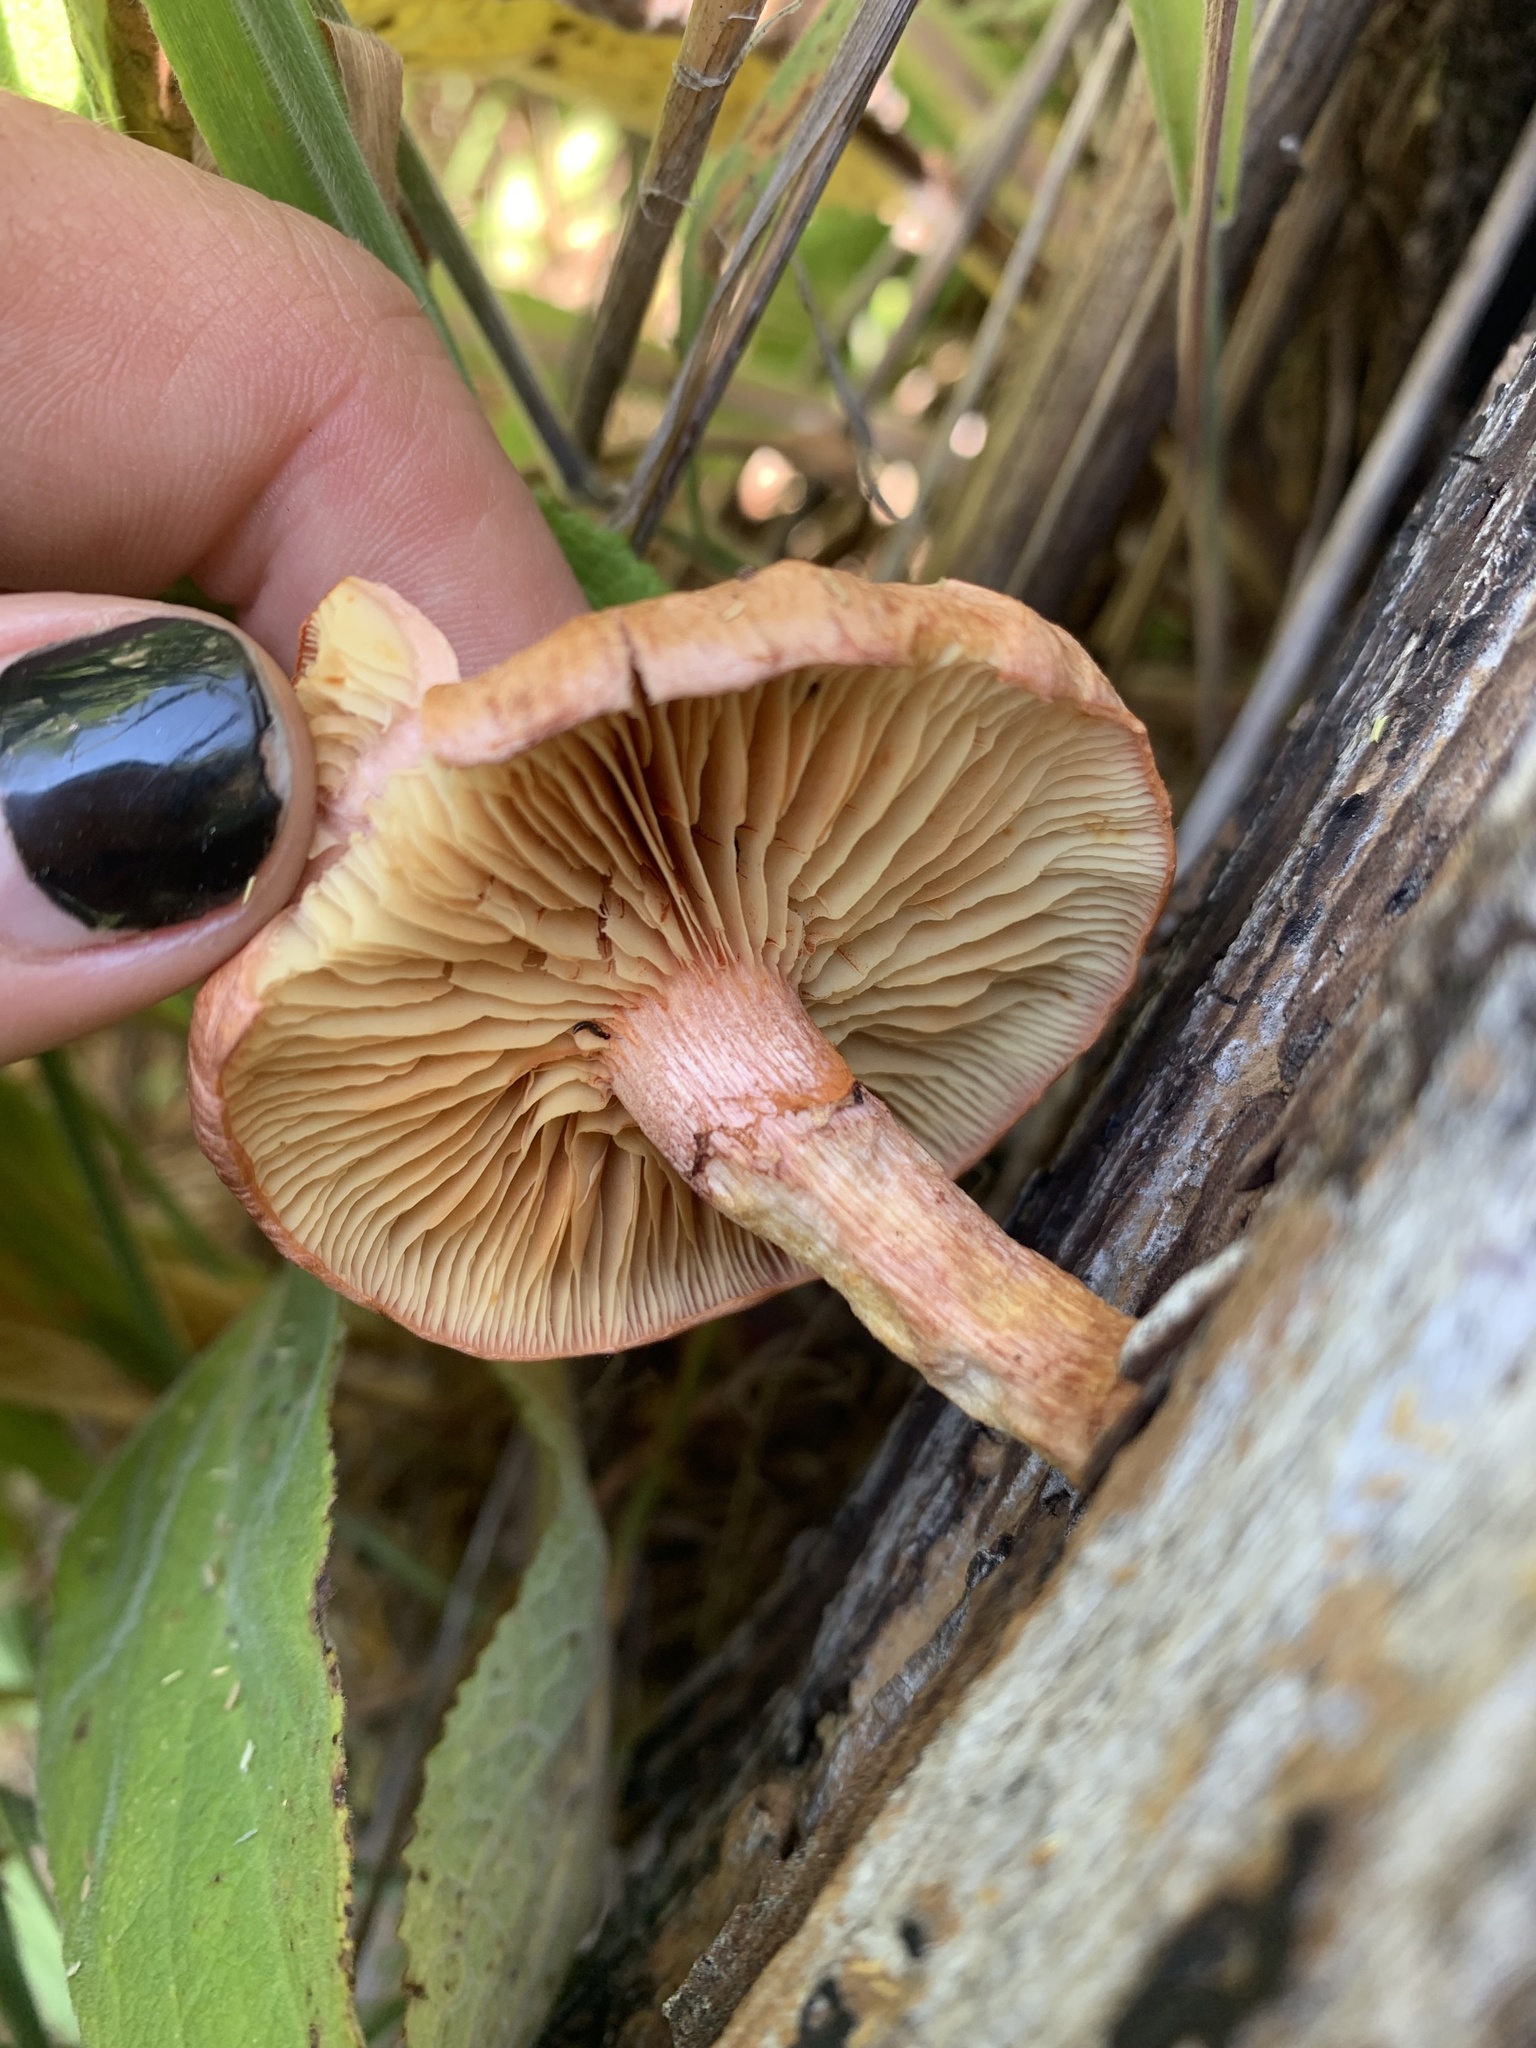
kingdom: Fungi
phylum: Basidiomycota
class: Agaricomycetes
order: Agaricales
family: Hymenogastraceae
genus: Gymnopilus
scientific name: Gymnopilus thiersii
